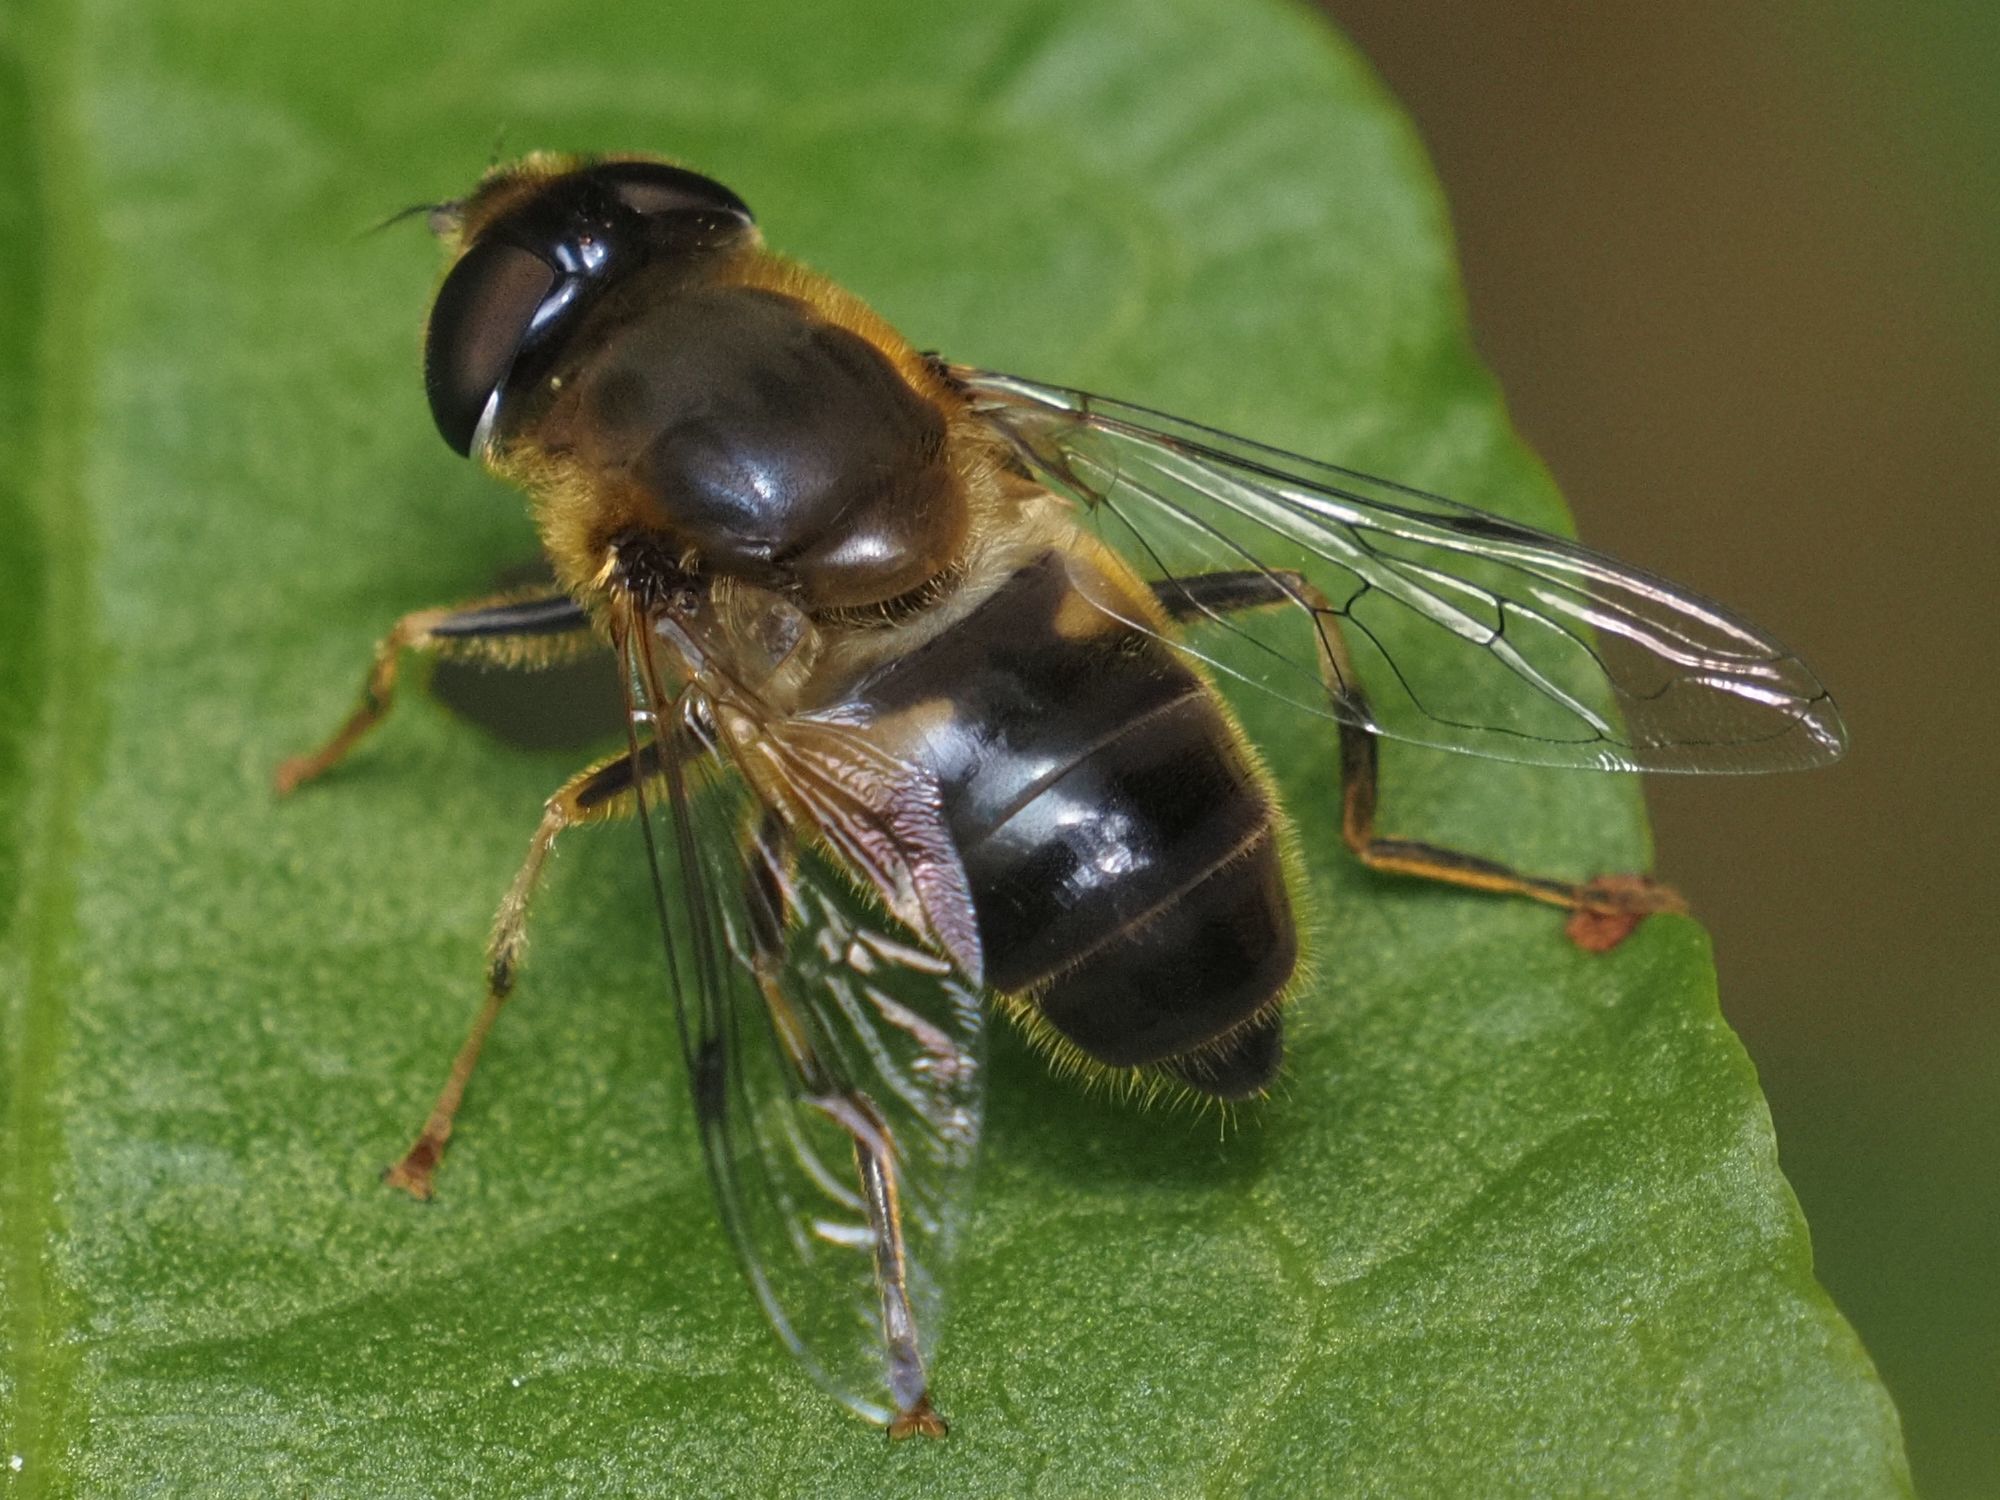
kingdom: Animalia
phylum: Arthropoda
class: Insecta
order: Diptera
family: Syrphidae
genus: Eristalis
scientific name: Eristalis pertinax
